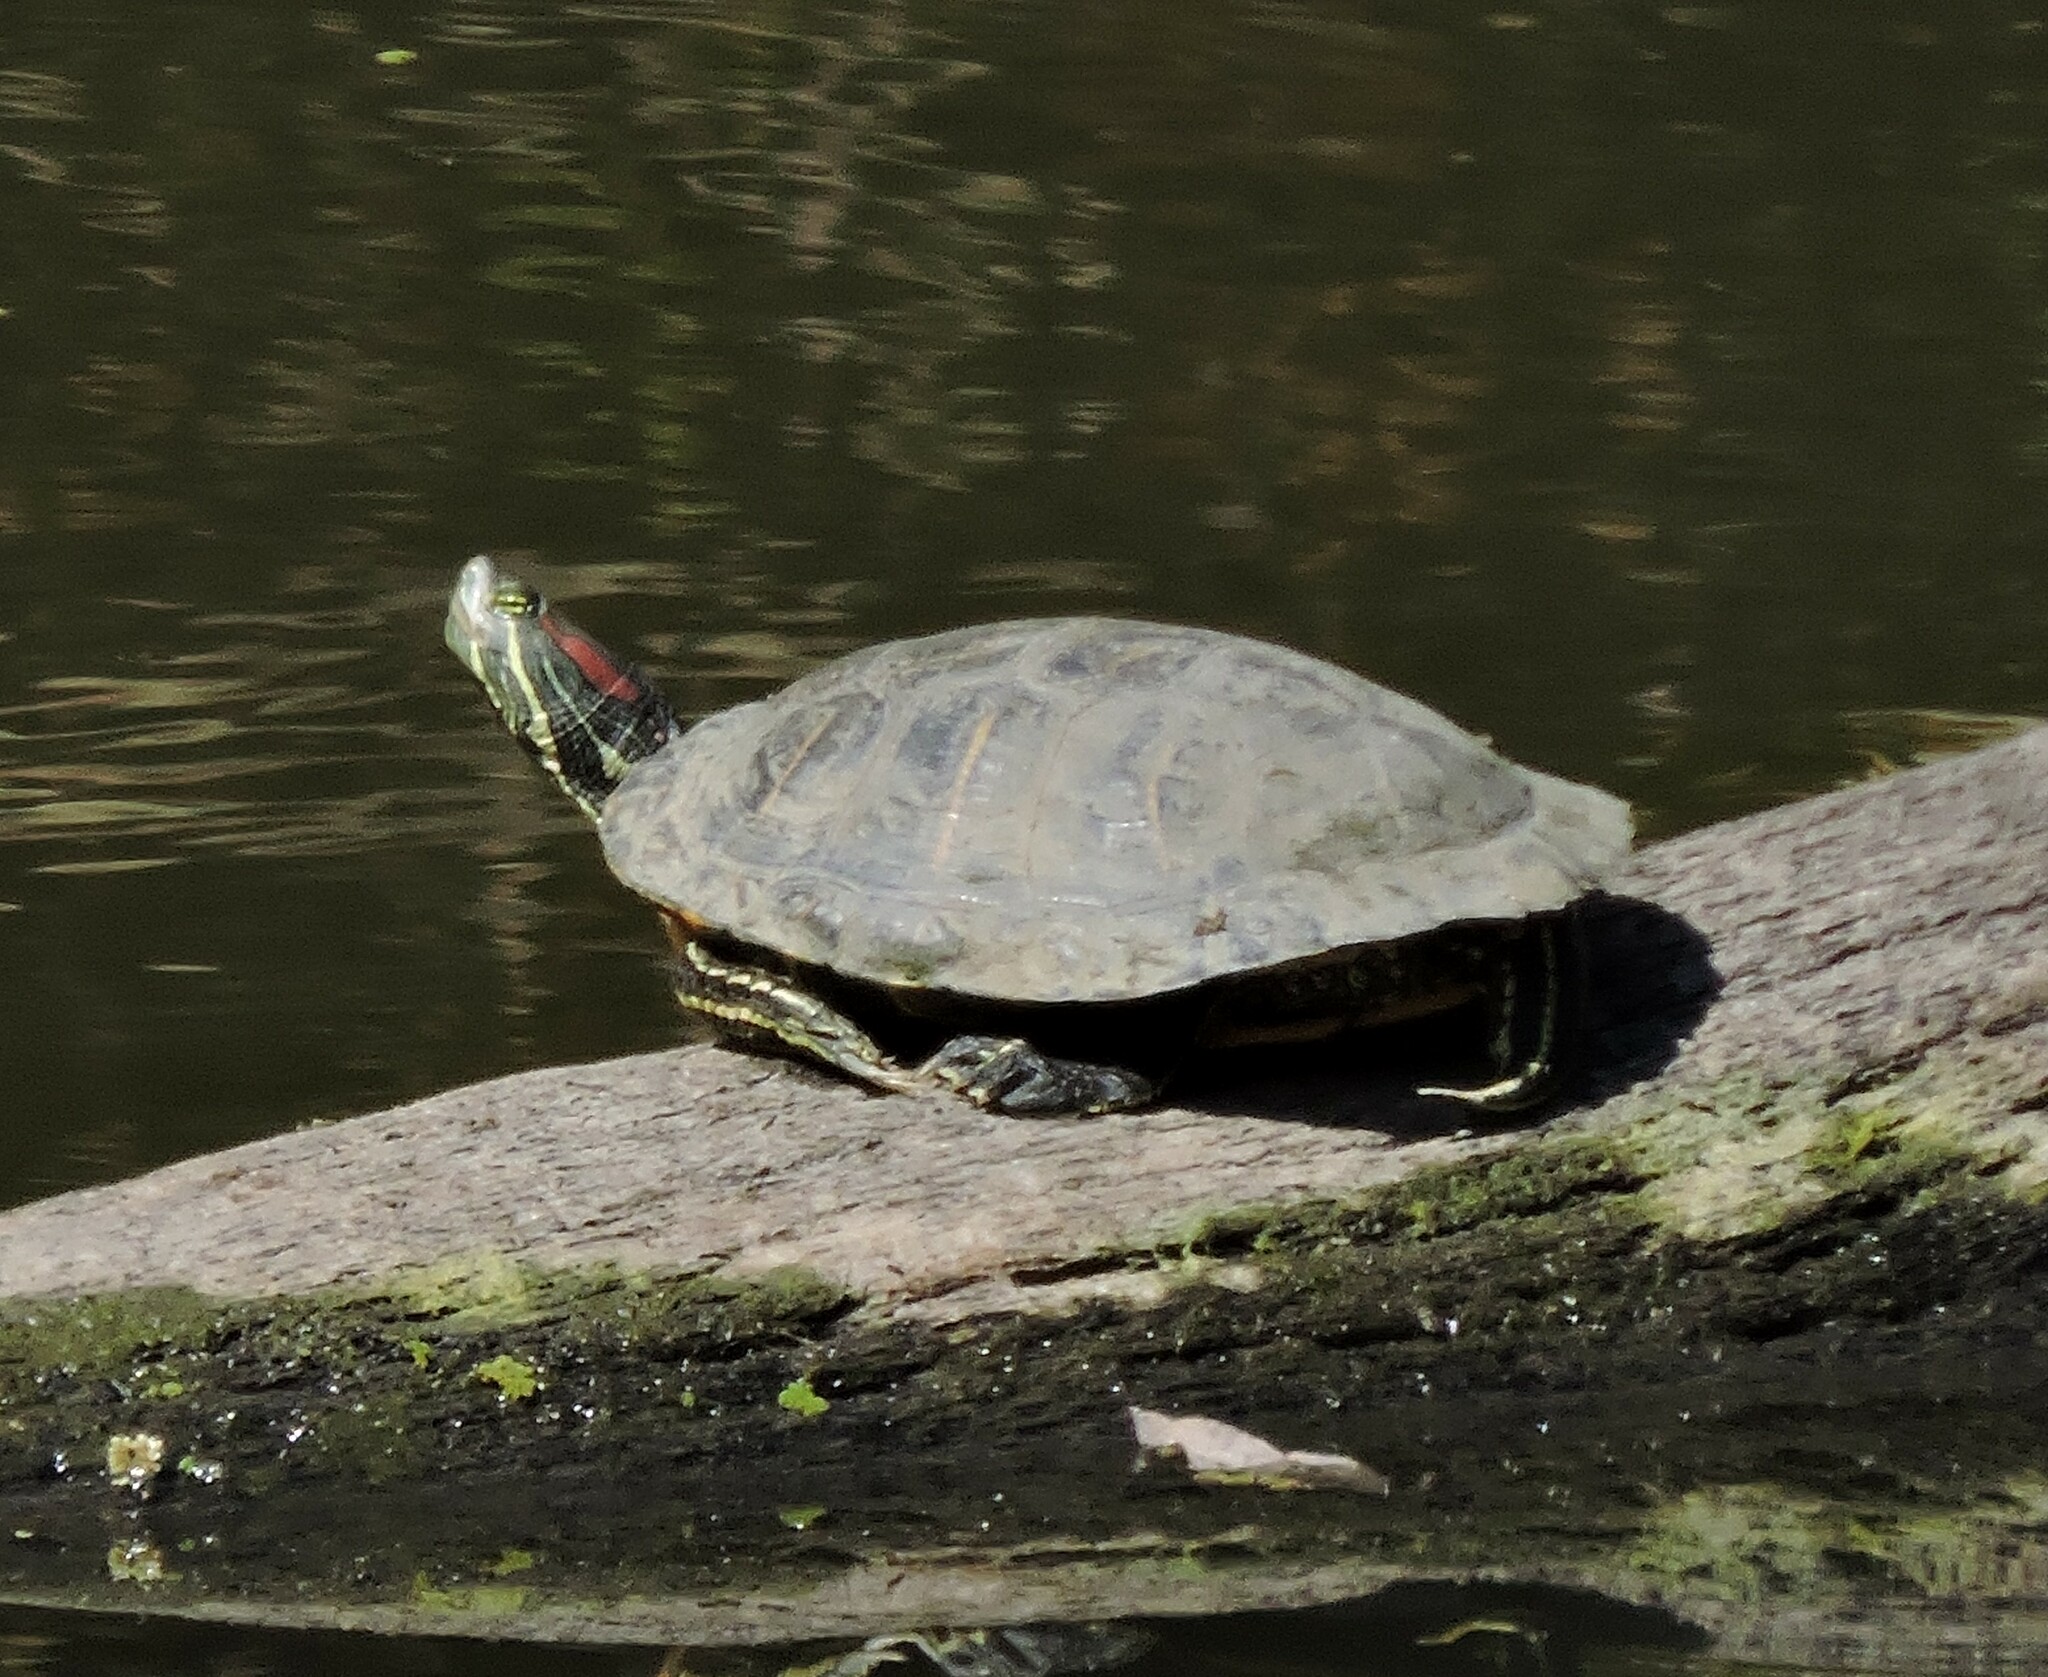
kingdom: Animalia
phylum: Chordata
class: Testudines
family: Emydidae
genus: Trachemys
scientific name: Trachemys scripta
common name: Slider
